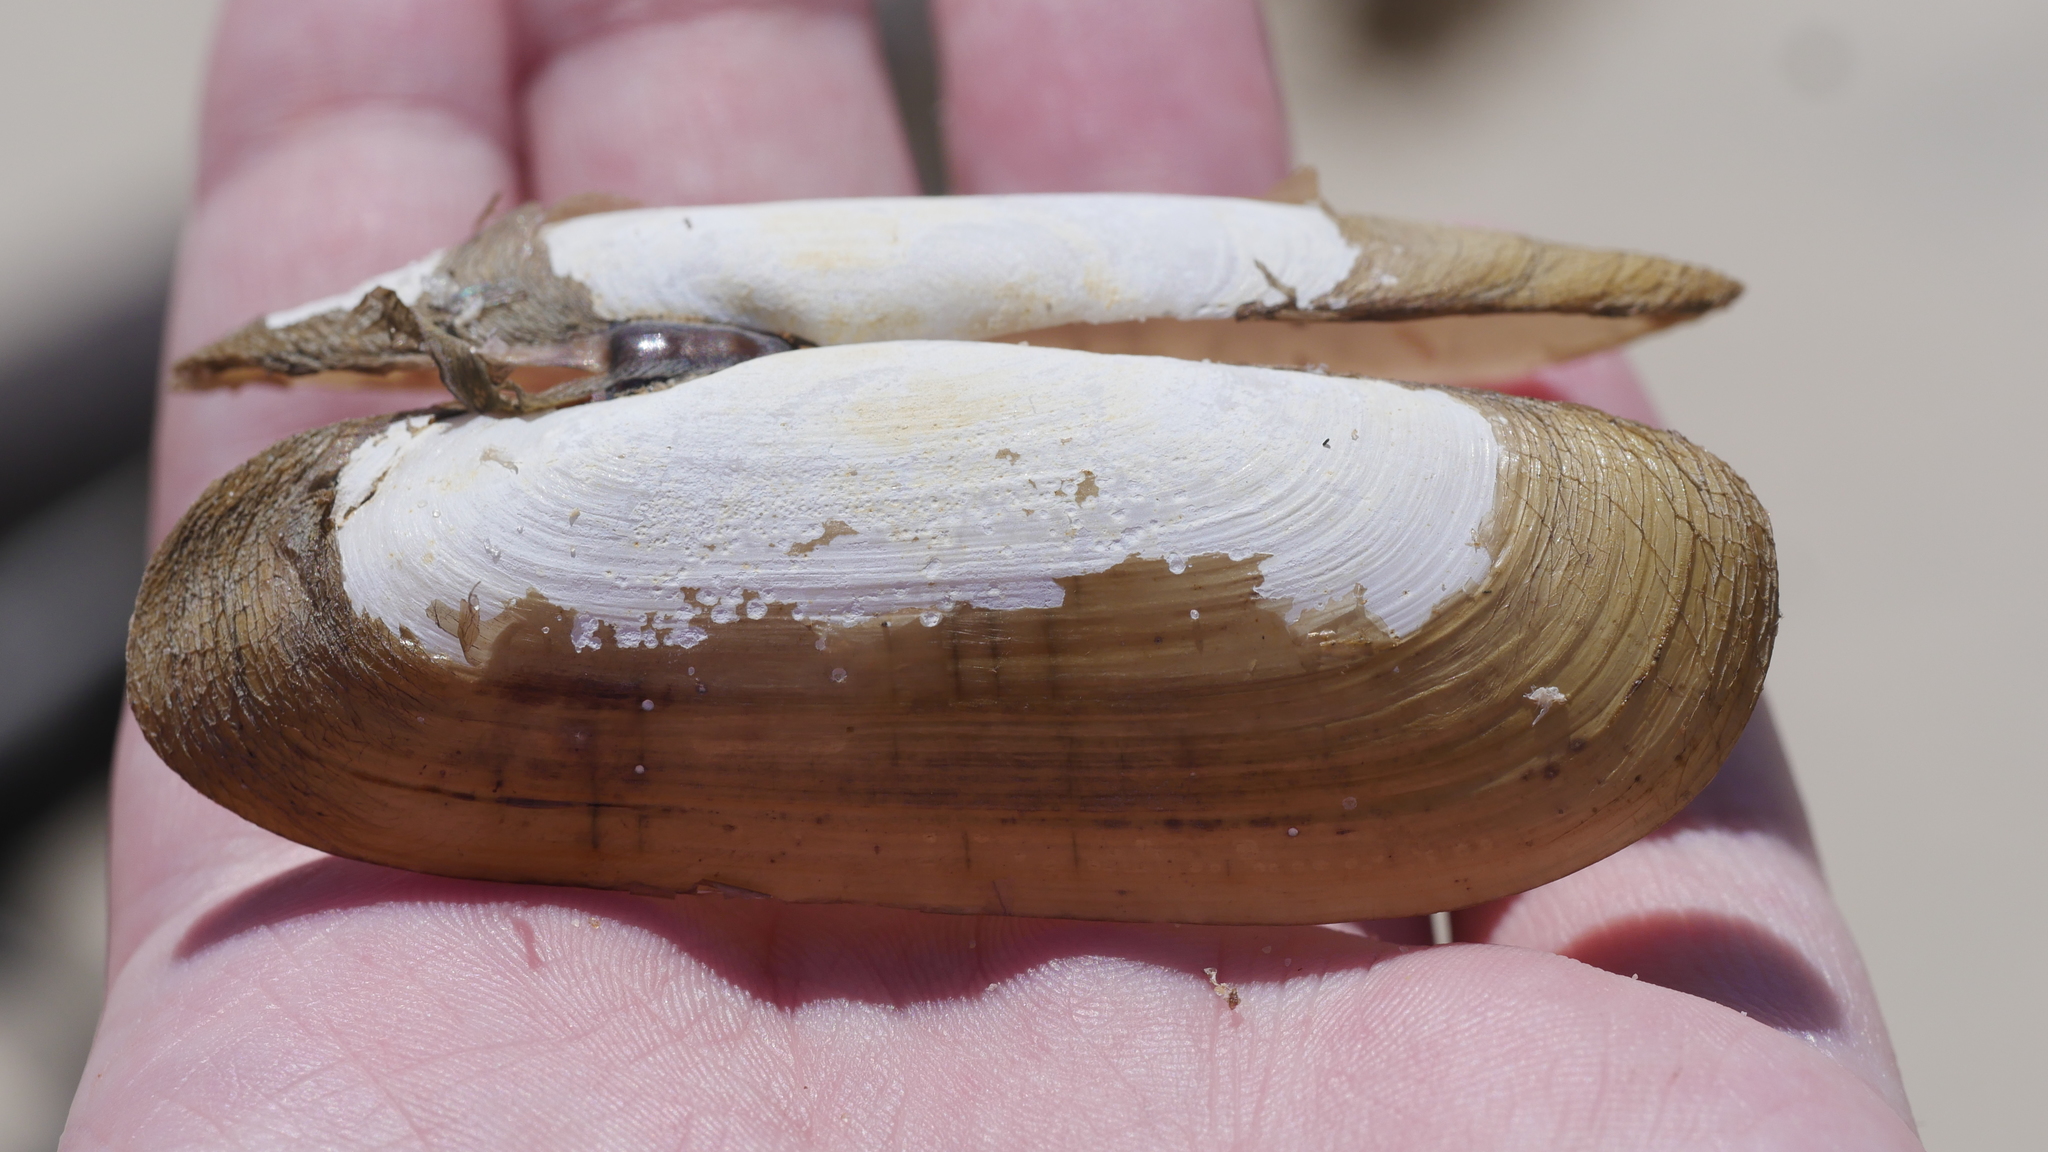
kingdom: Animalia
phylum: Mollusca
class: Bivalvia
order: Cardiida
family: Solecurtidae
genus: Tagelus
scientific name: Tagelus plebeius
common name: Stout tagelus
